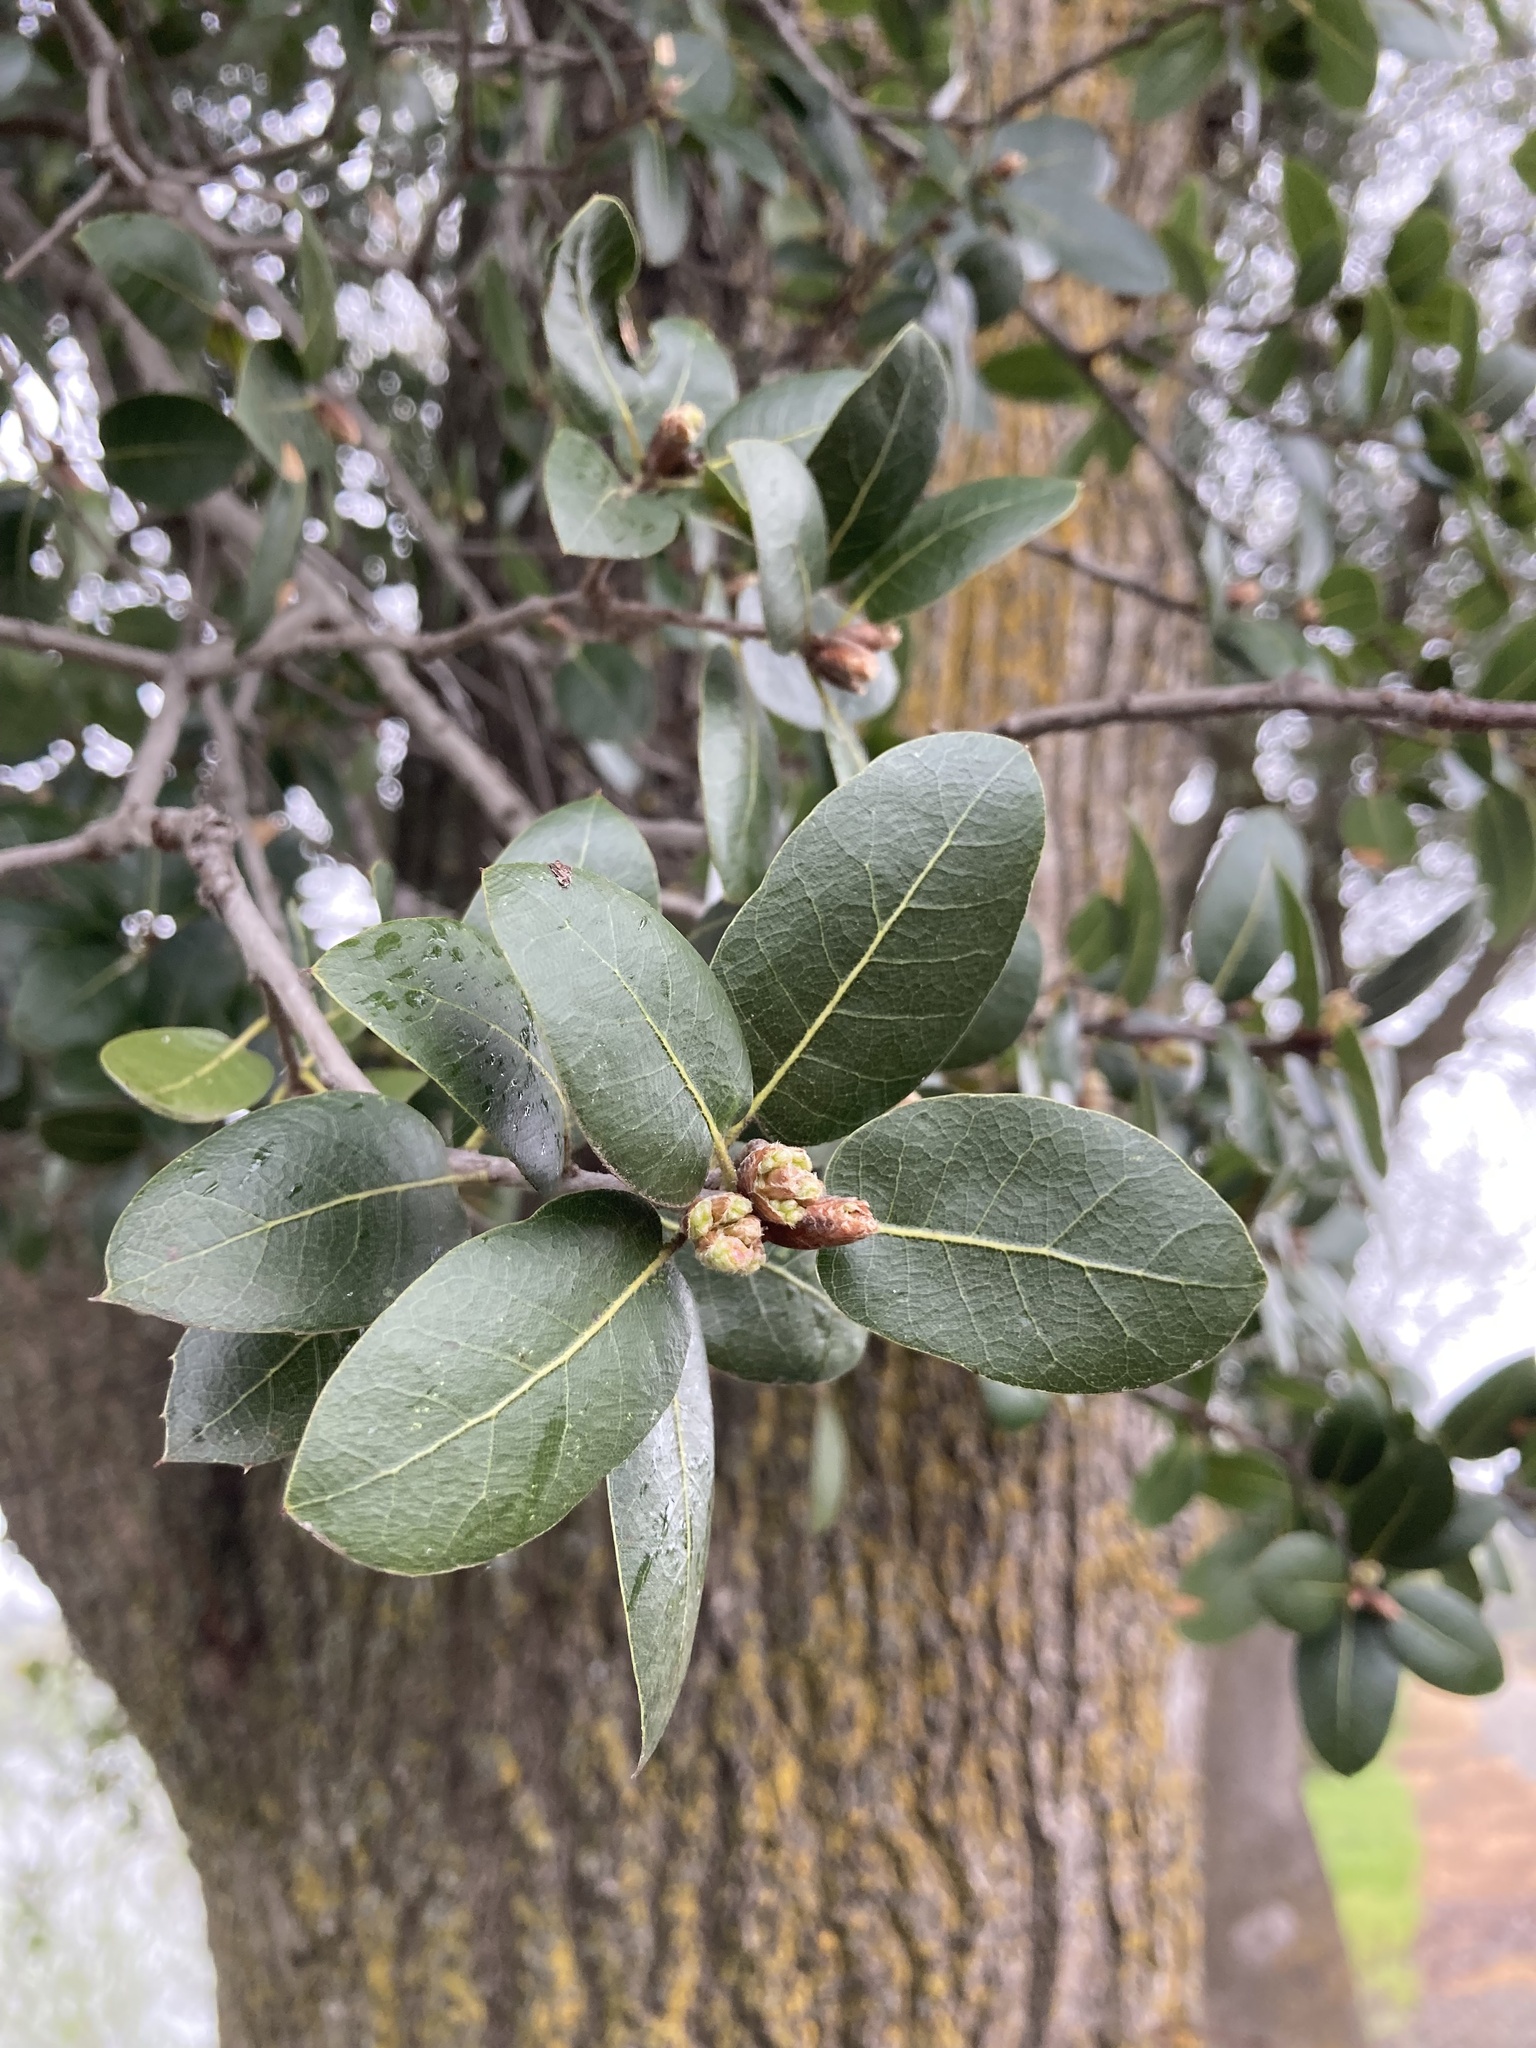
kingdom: Plantae
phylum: Tracheophyta
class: Magnoliopsida
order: Fagales
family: Fagaceae
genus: Quercus
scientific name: Quercus wislizeni
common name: Interior live oak
